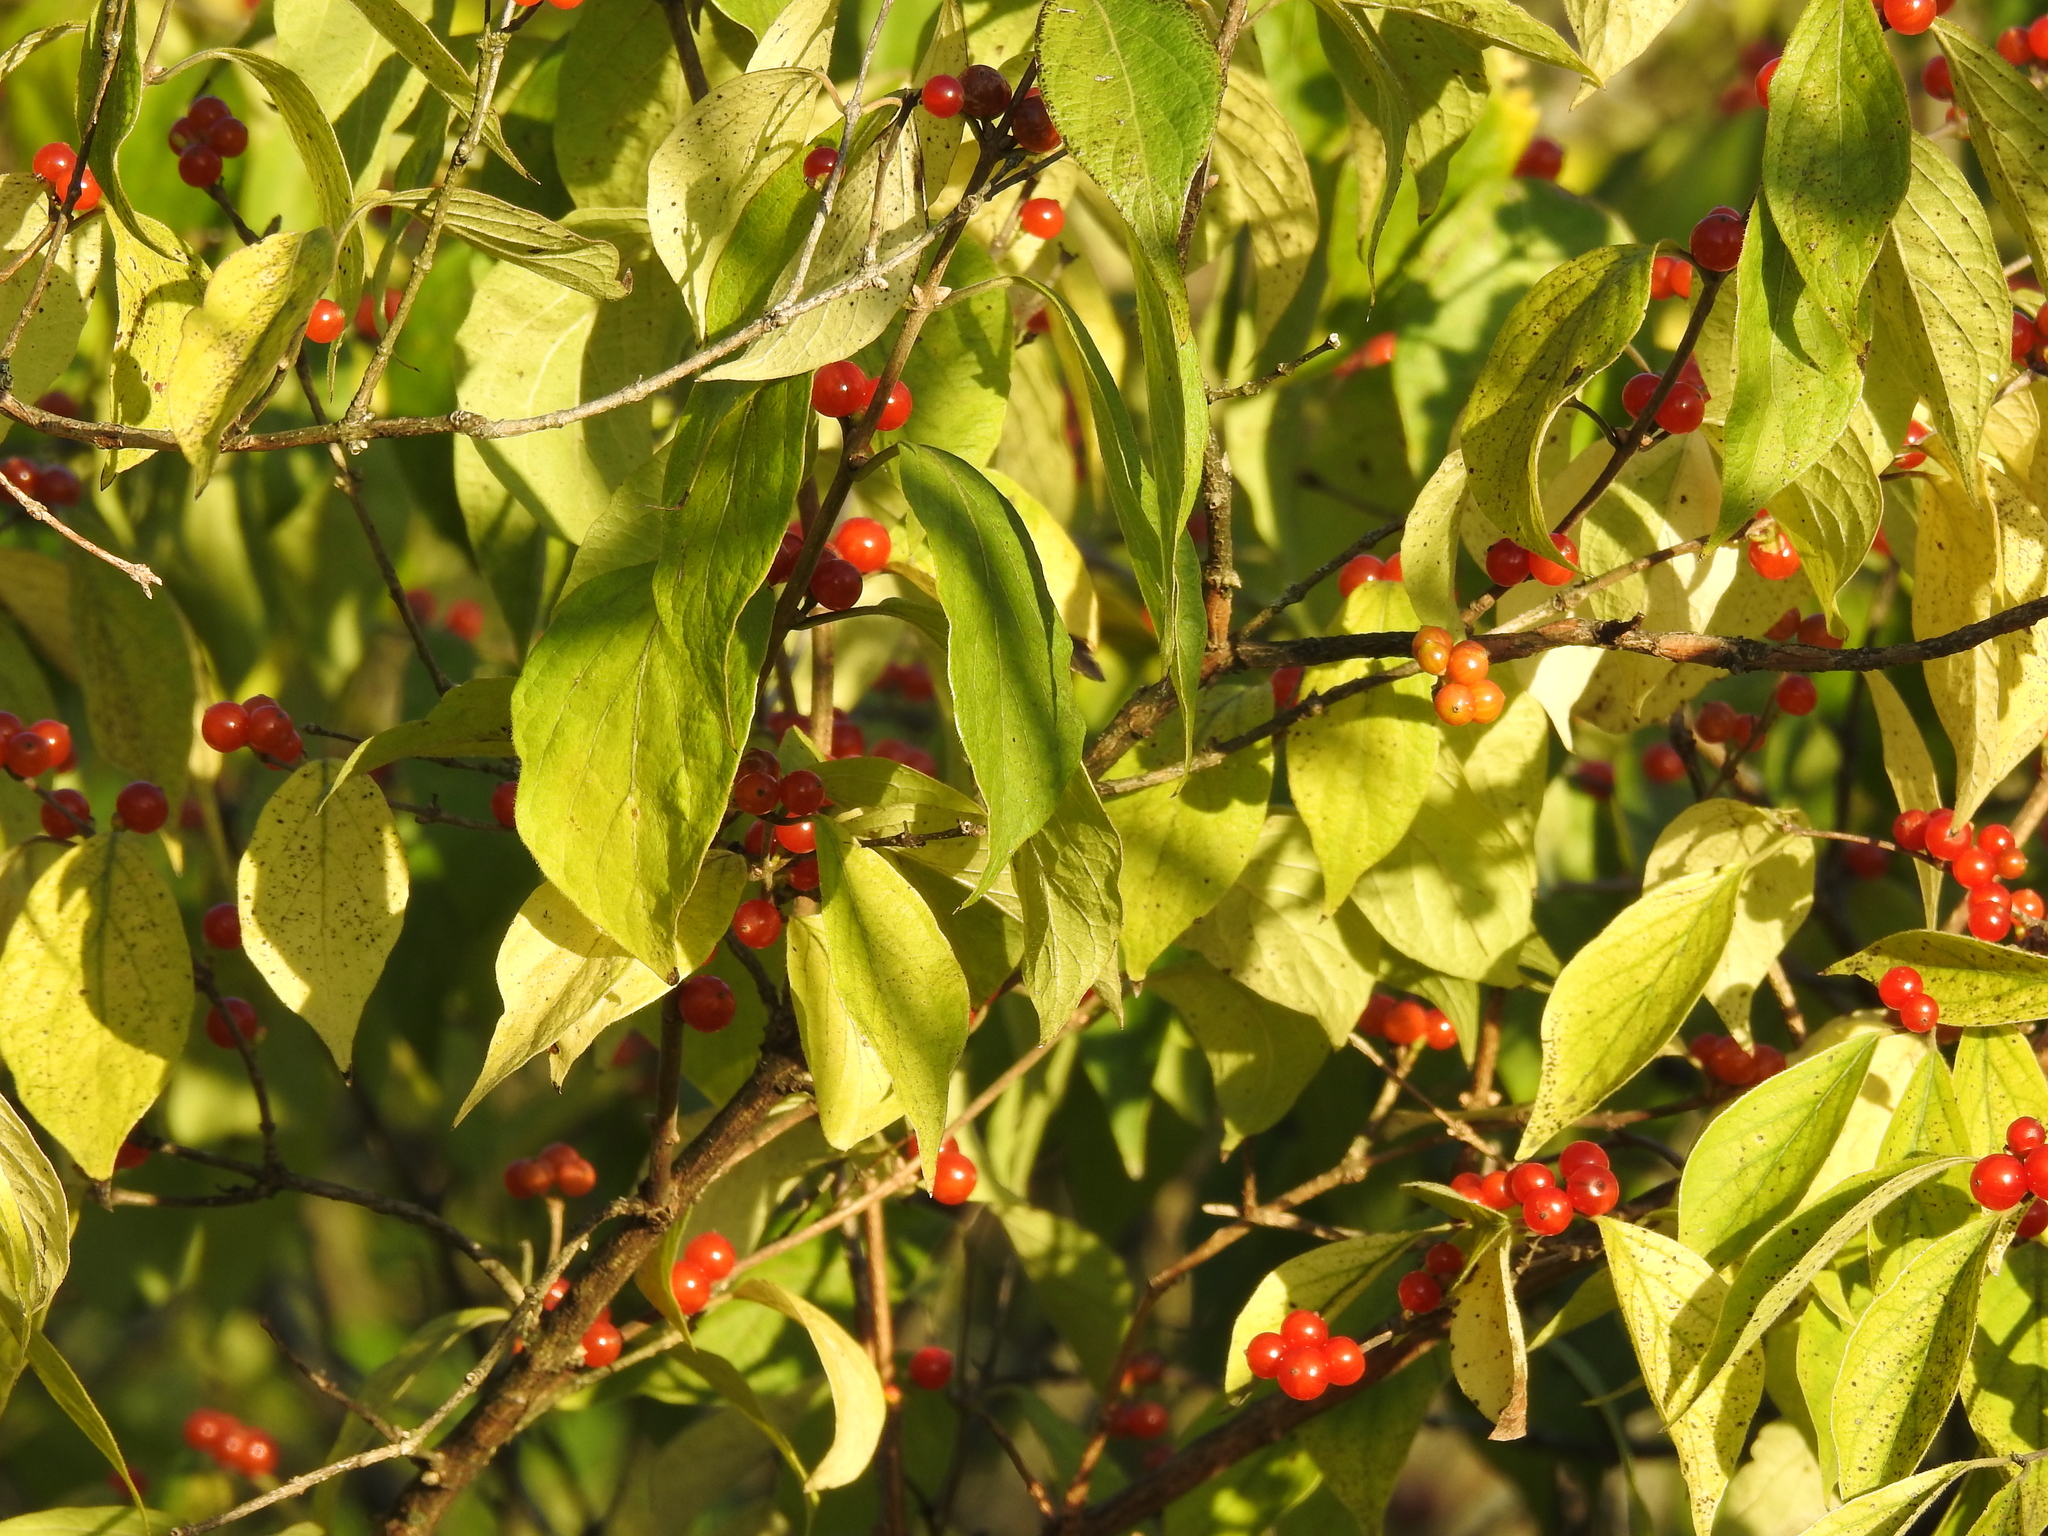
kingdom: Plantae
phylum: Tracheophyta
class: Magnoliopsida
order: Dipsacales
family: Caprifoliaceae
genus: Lonicera
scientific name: Lonicera maackii
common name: Amur honeysuckle
